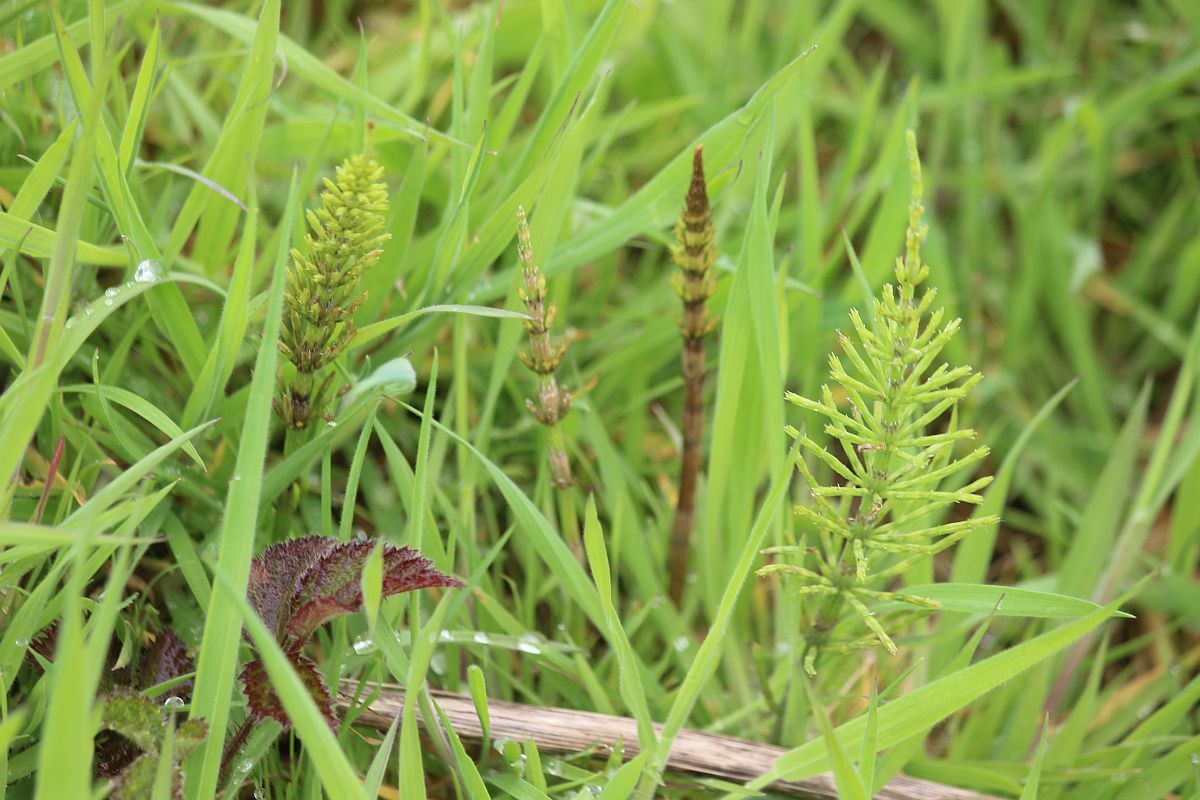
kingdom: Plantae
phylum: Tracheophyta
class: Polypodiopsida
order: Equisetales
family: Equisetaceae
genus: Equisetum
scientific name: Equisetum arvense
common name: Field horsetail
